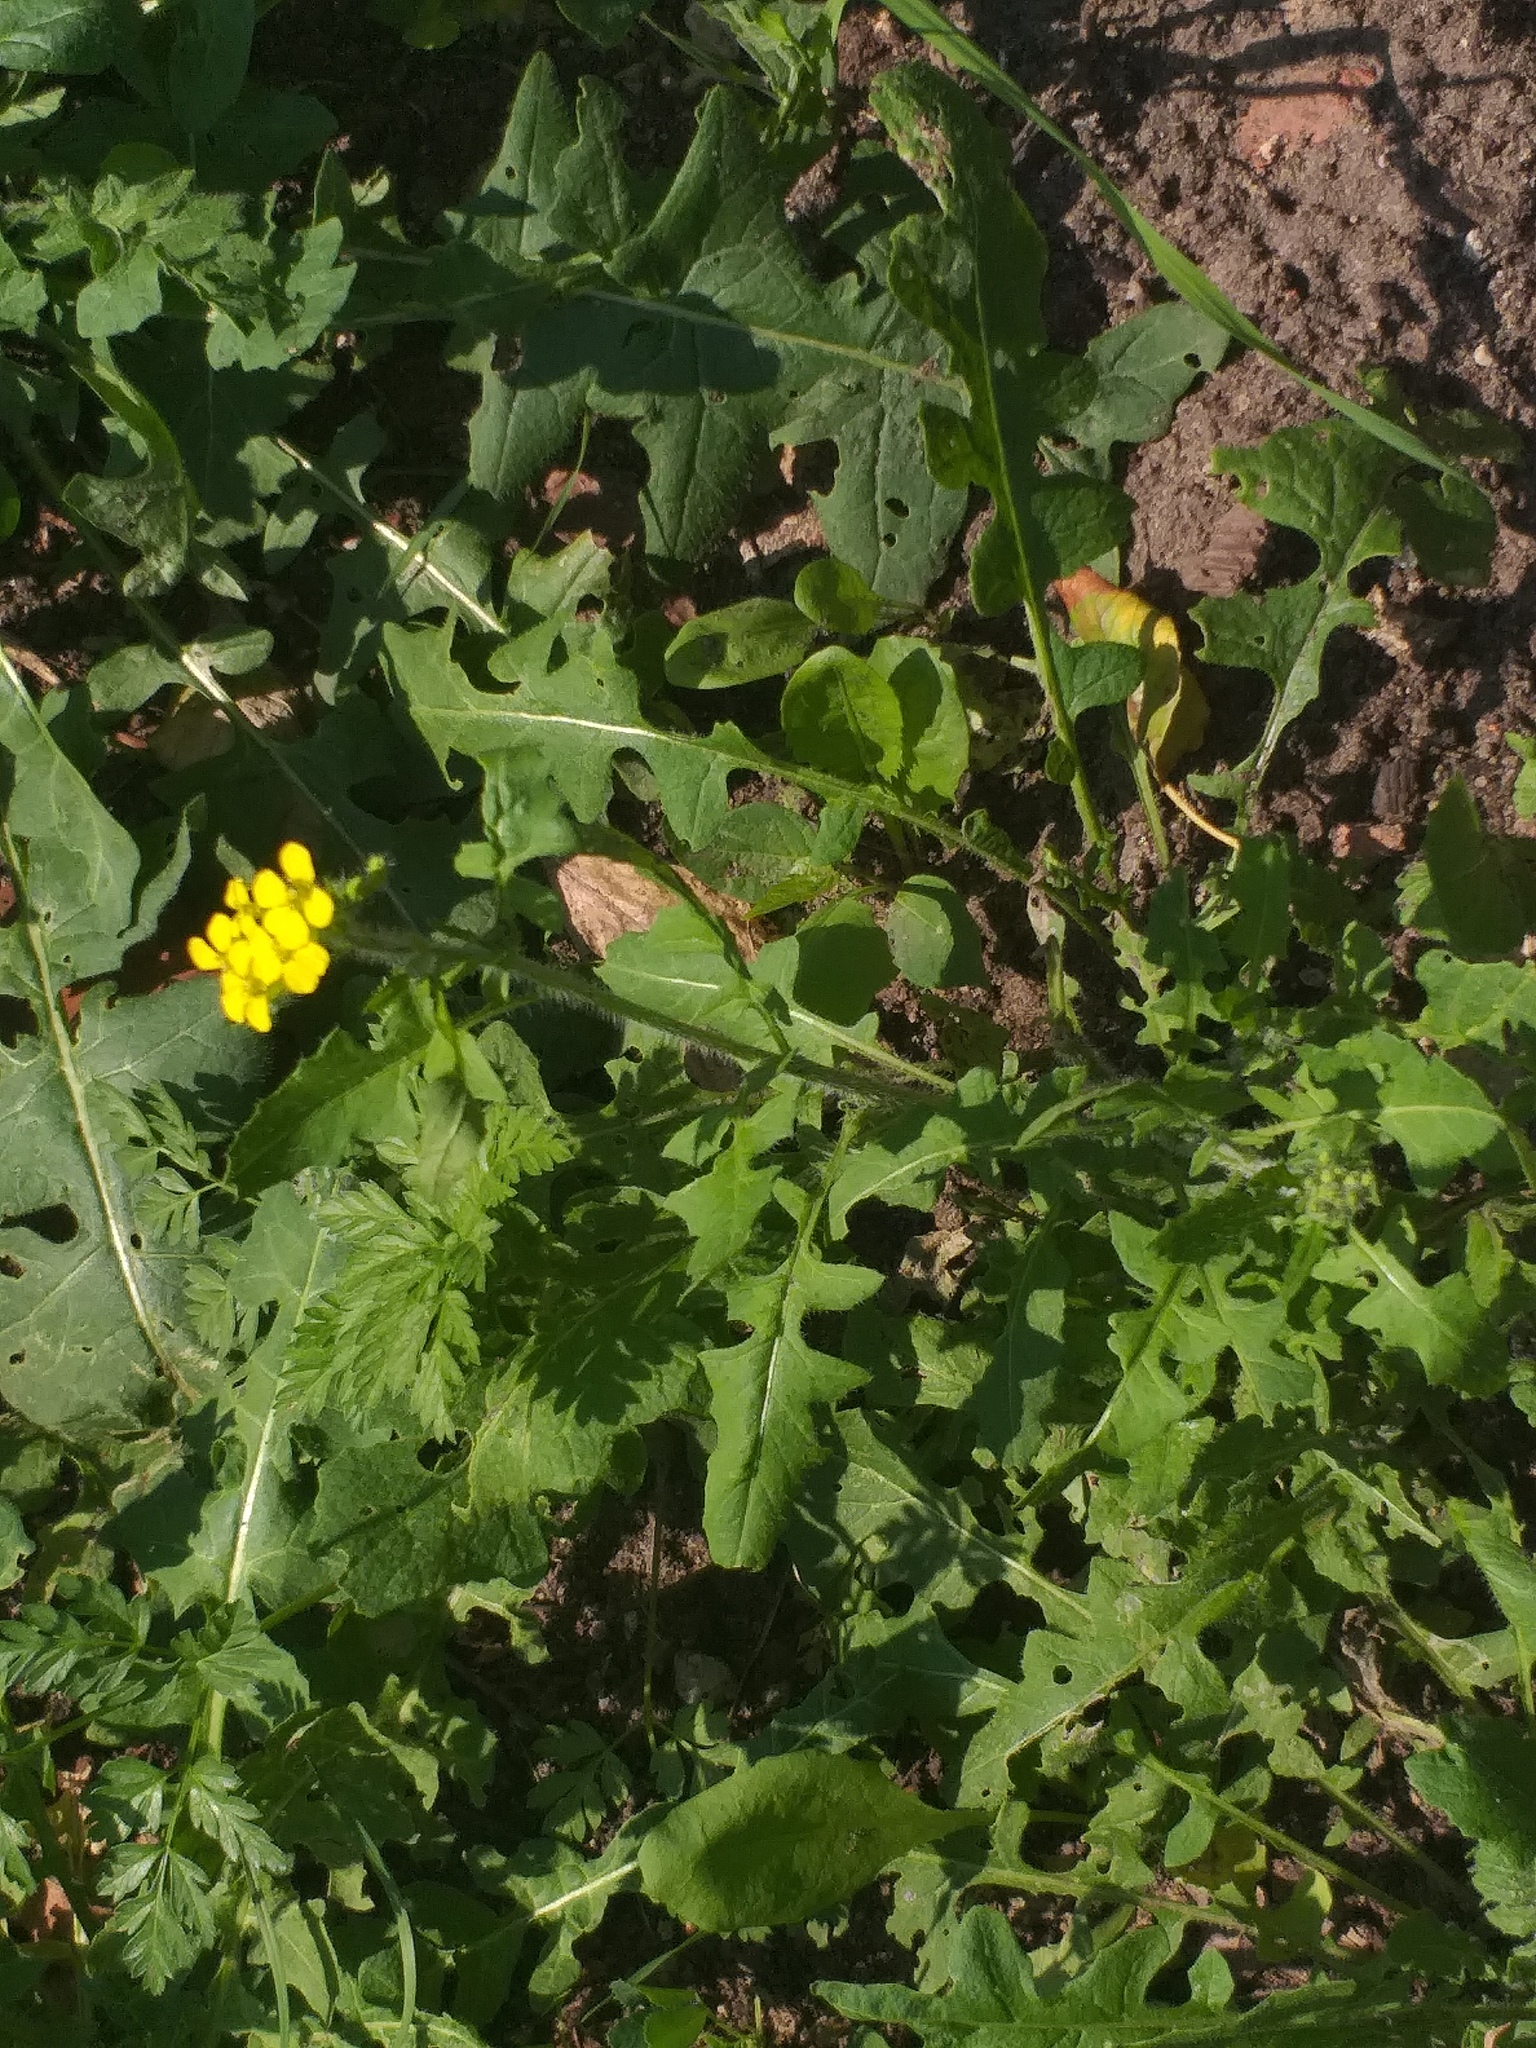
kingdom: Plantae
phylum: Tracheophyta
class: Magnoliopsida
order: Brassicales
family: Brassicaceae
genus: Sisymbrium
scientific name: Sisymbrium loeselii
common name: False london-rocket
